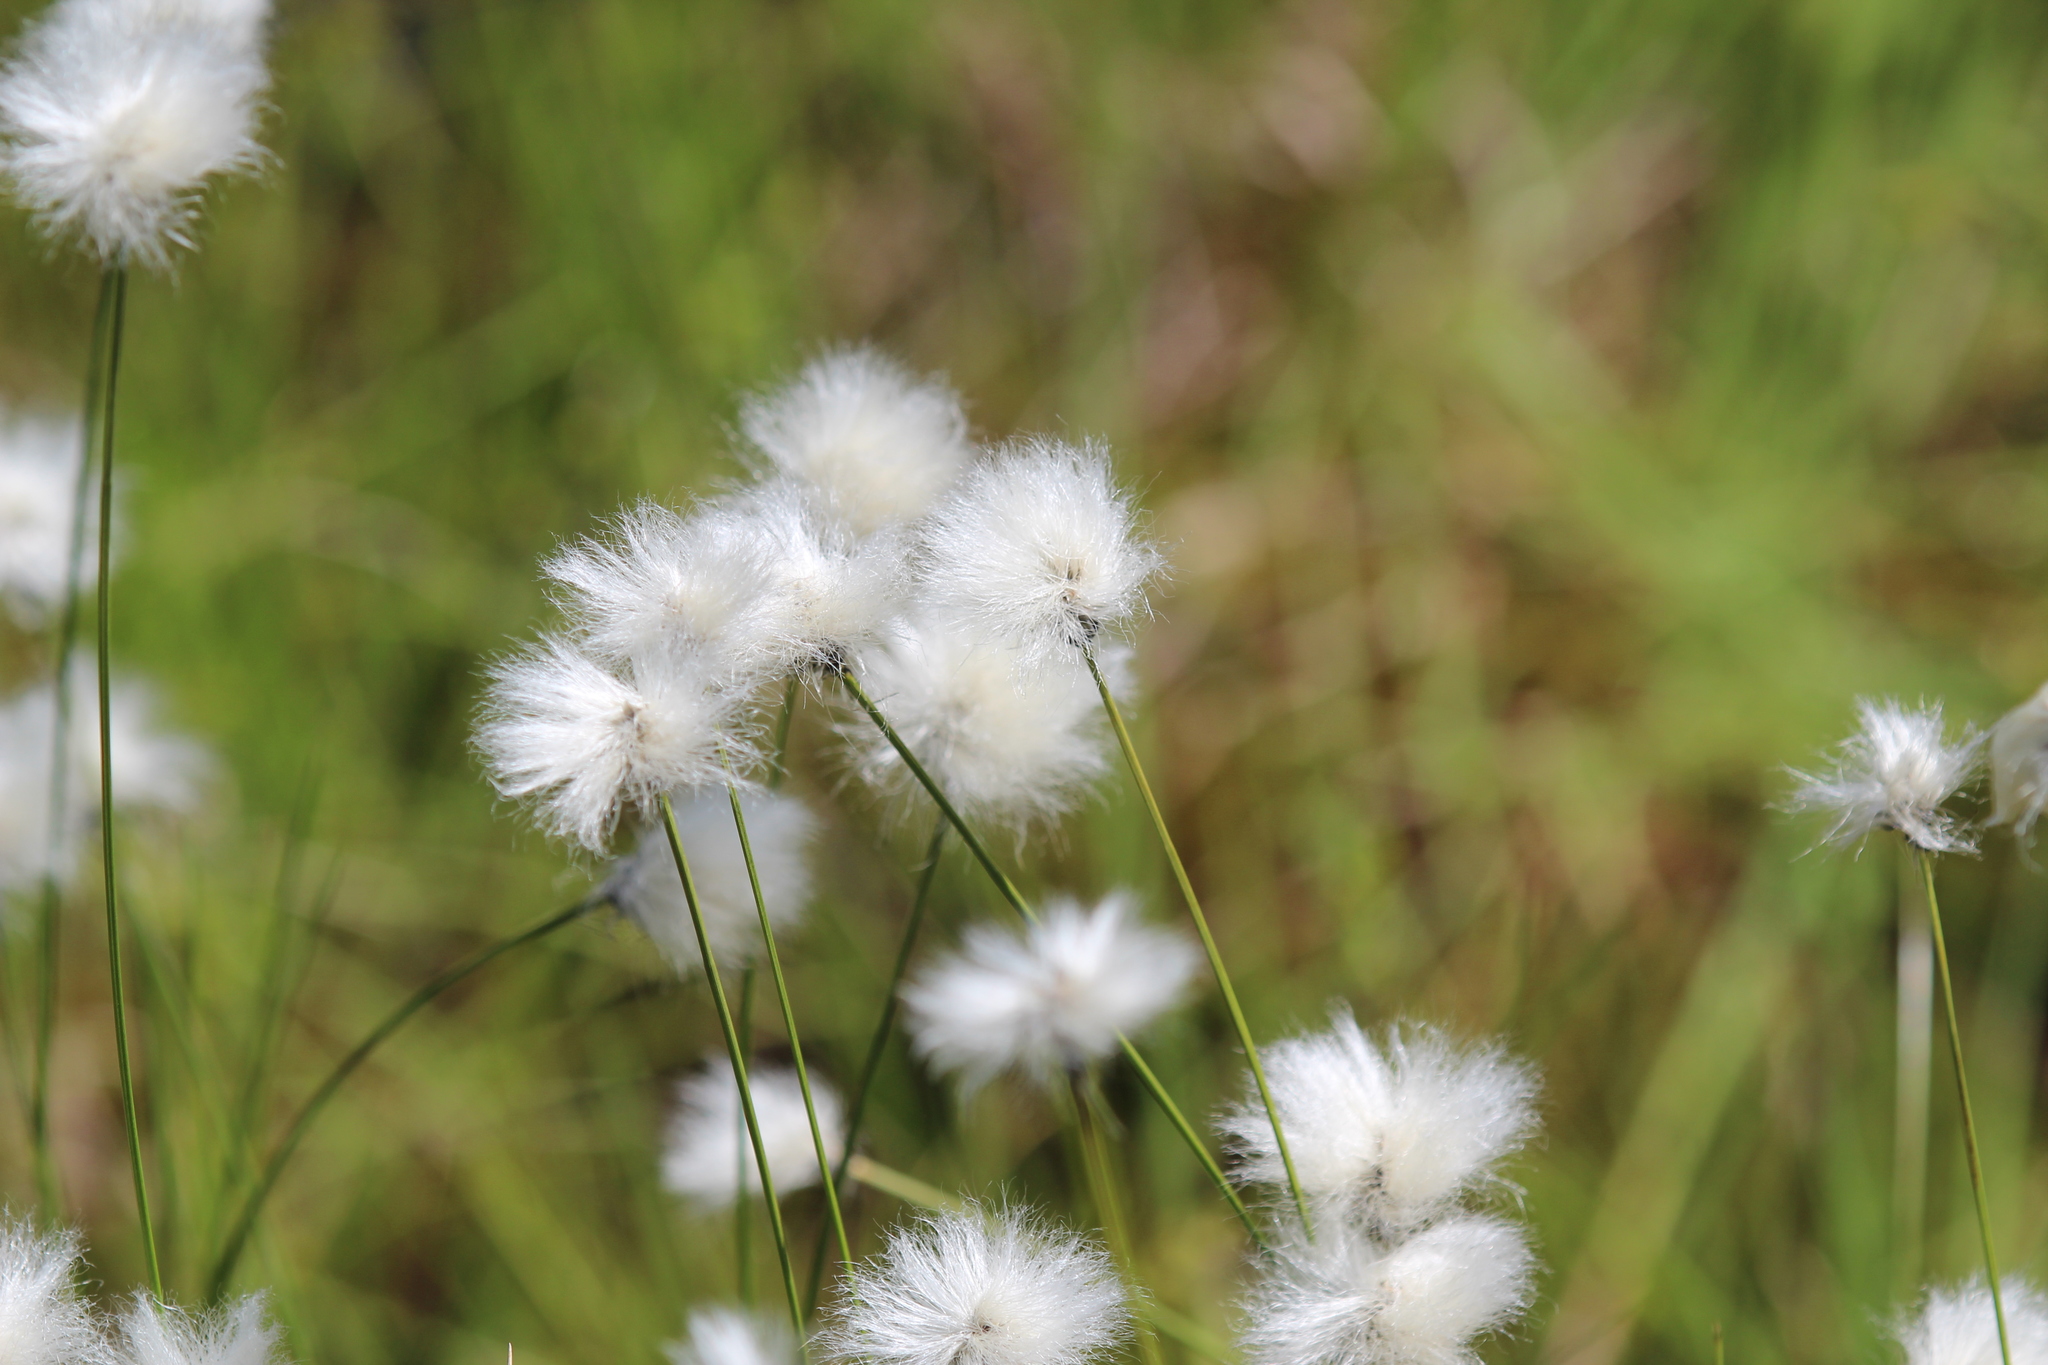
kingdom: Plantae
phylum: Tracheophyta
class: Liliopsida
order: Poales
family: Cyperaceae
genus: Eriophorum
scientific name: Eriophorum vaginatum
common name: Hare's-tail cottongrass
